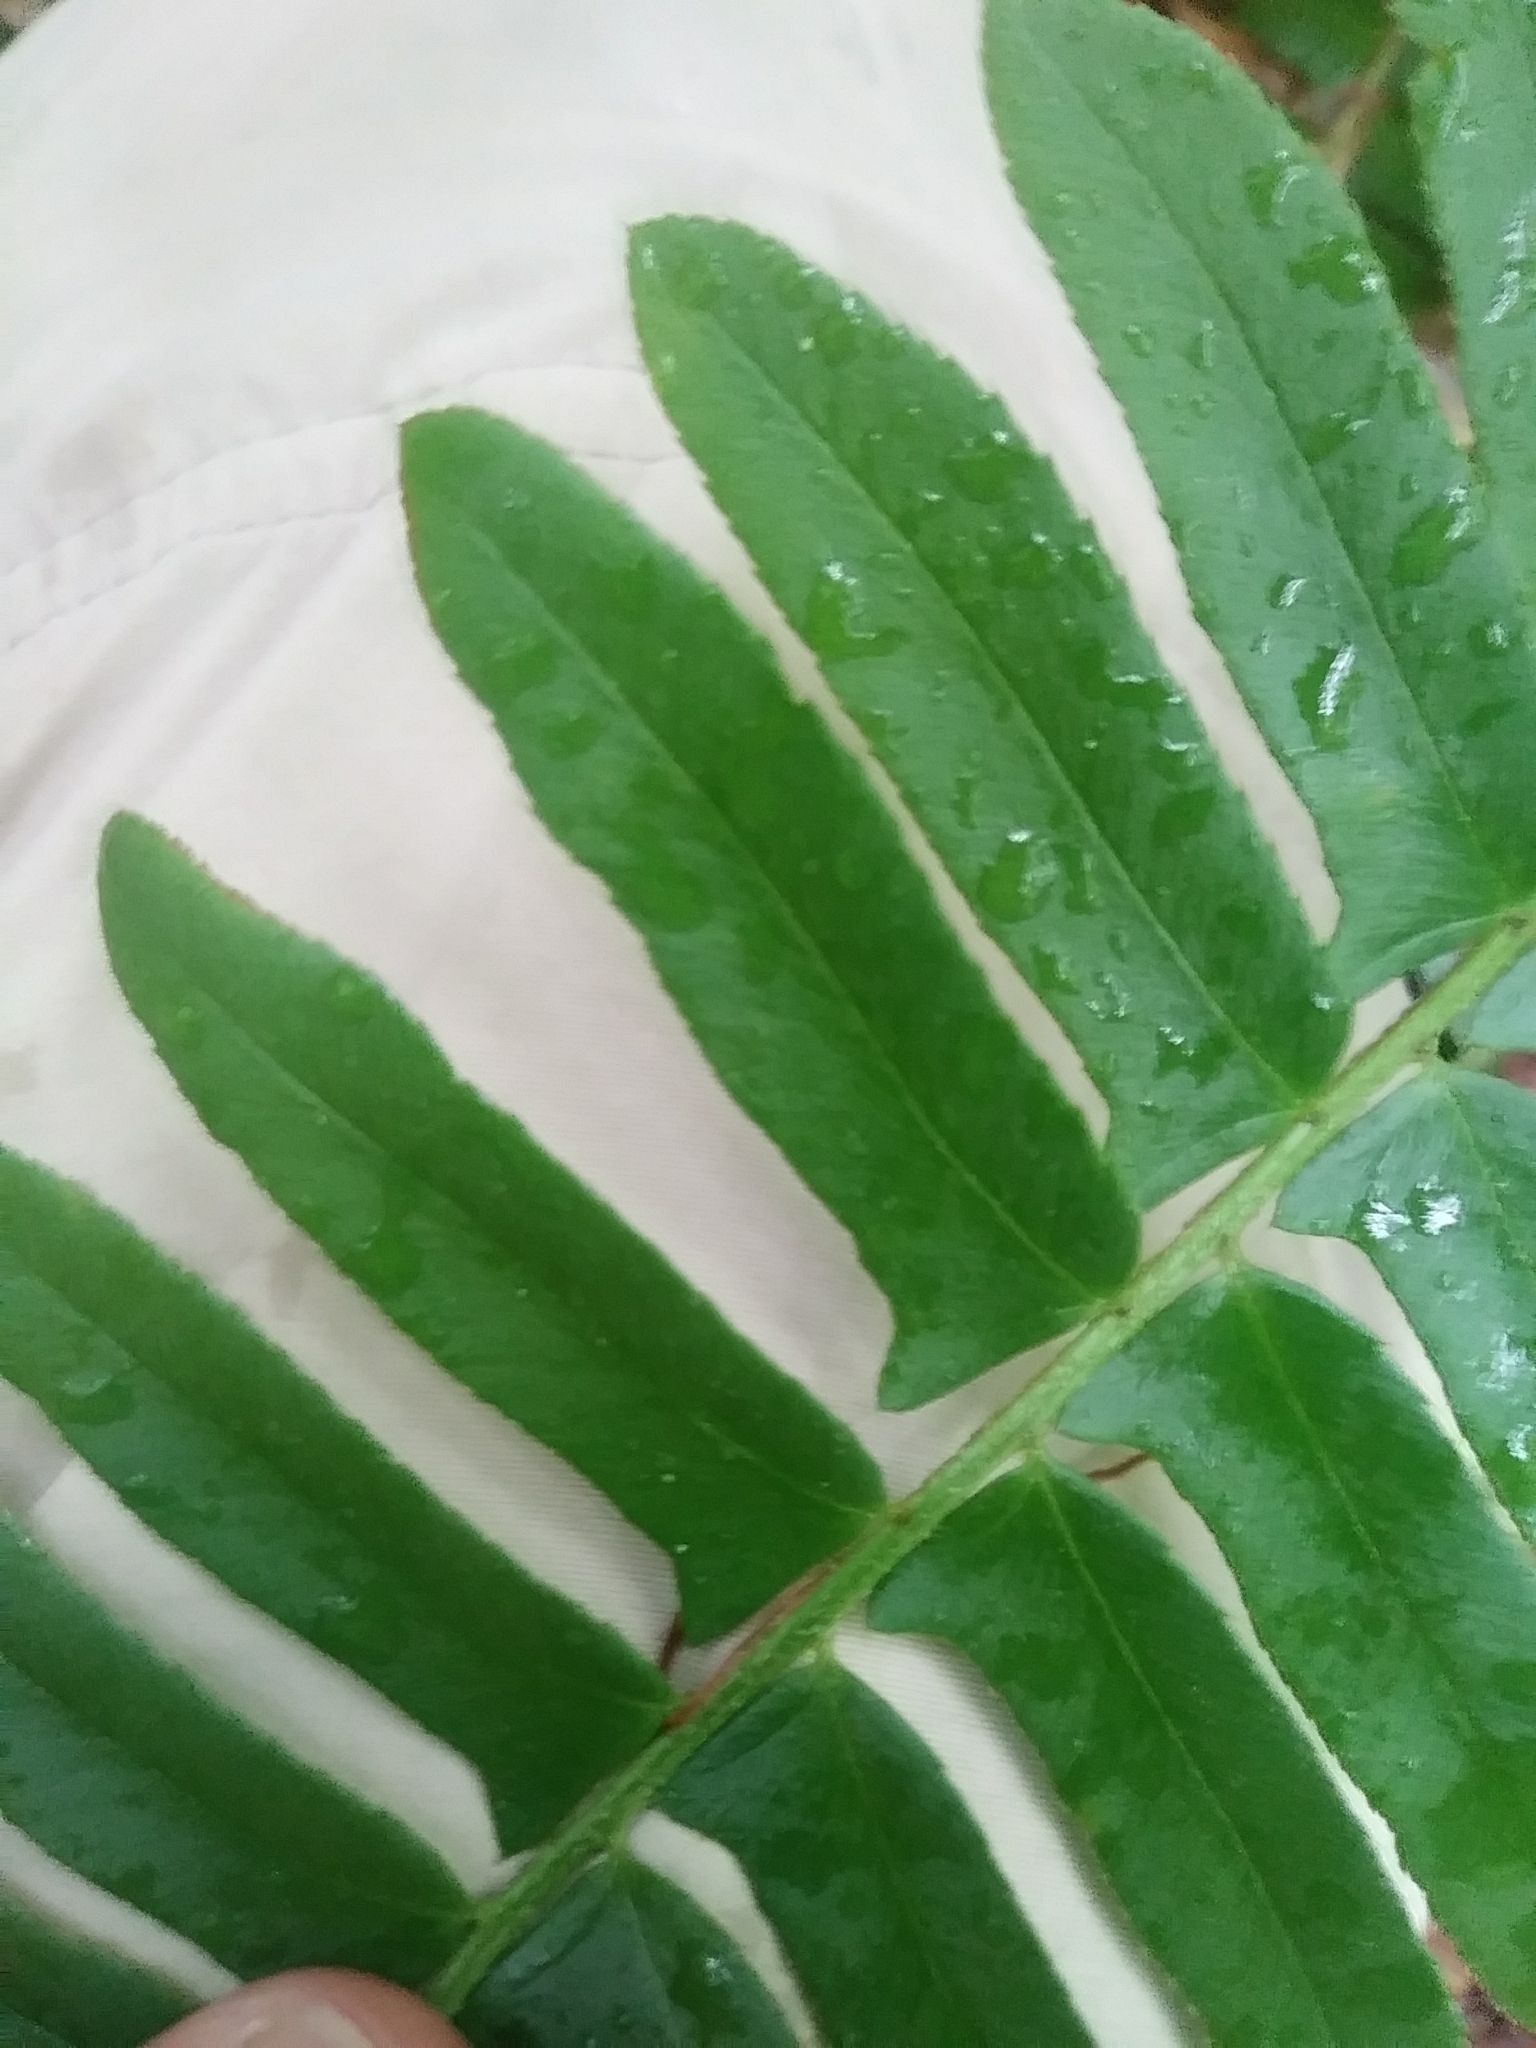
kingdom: Plantae
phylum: Tracheophyta
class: Polypodiopsida
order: Polypodiales
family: Dryopteridaceae
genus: Polystichum
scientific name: Polystichum acrostichoides
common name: Christmas fern
